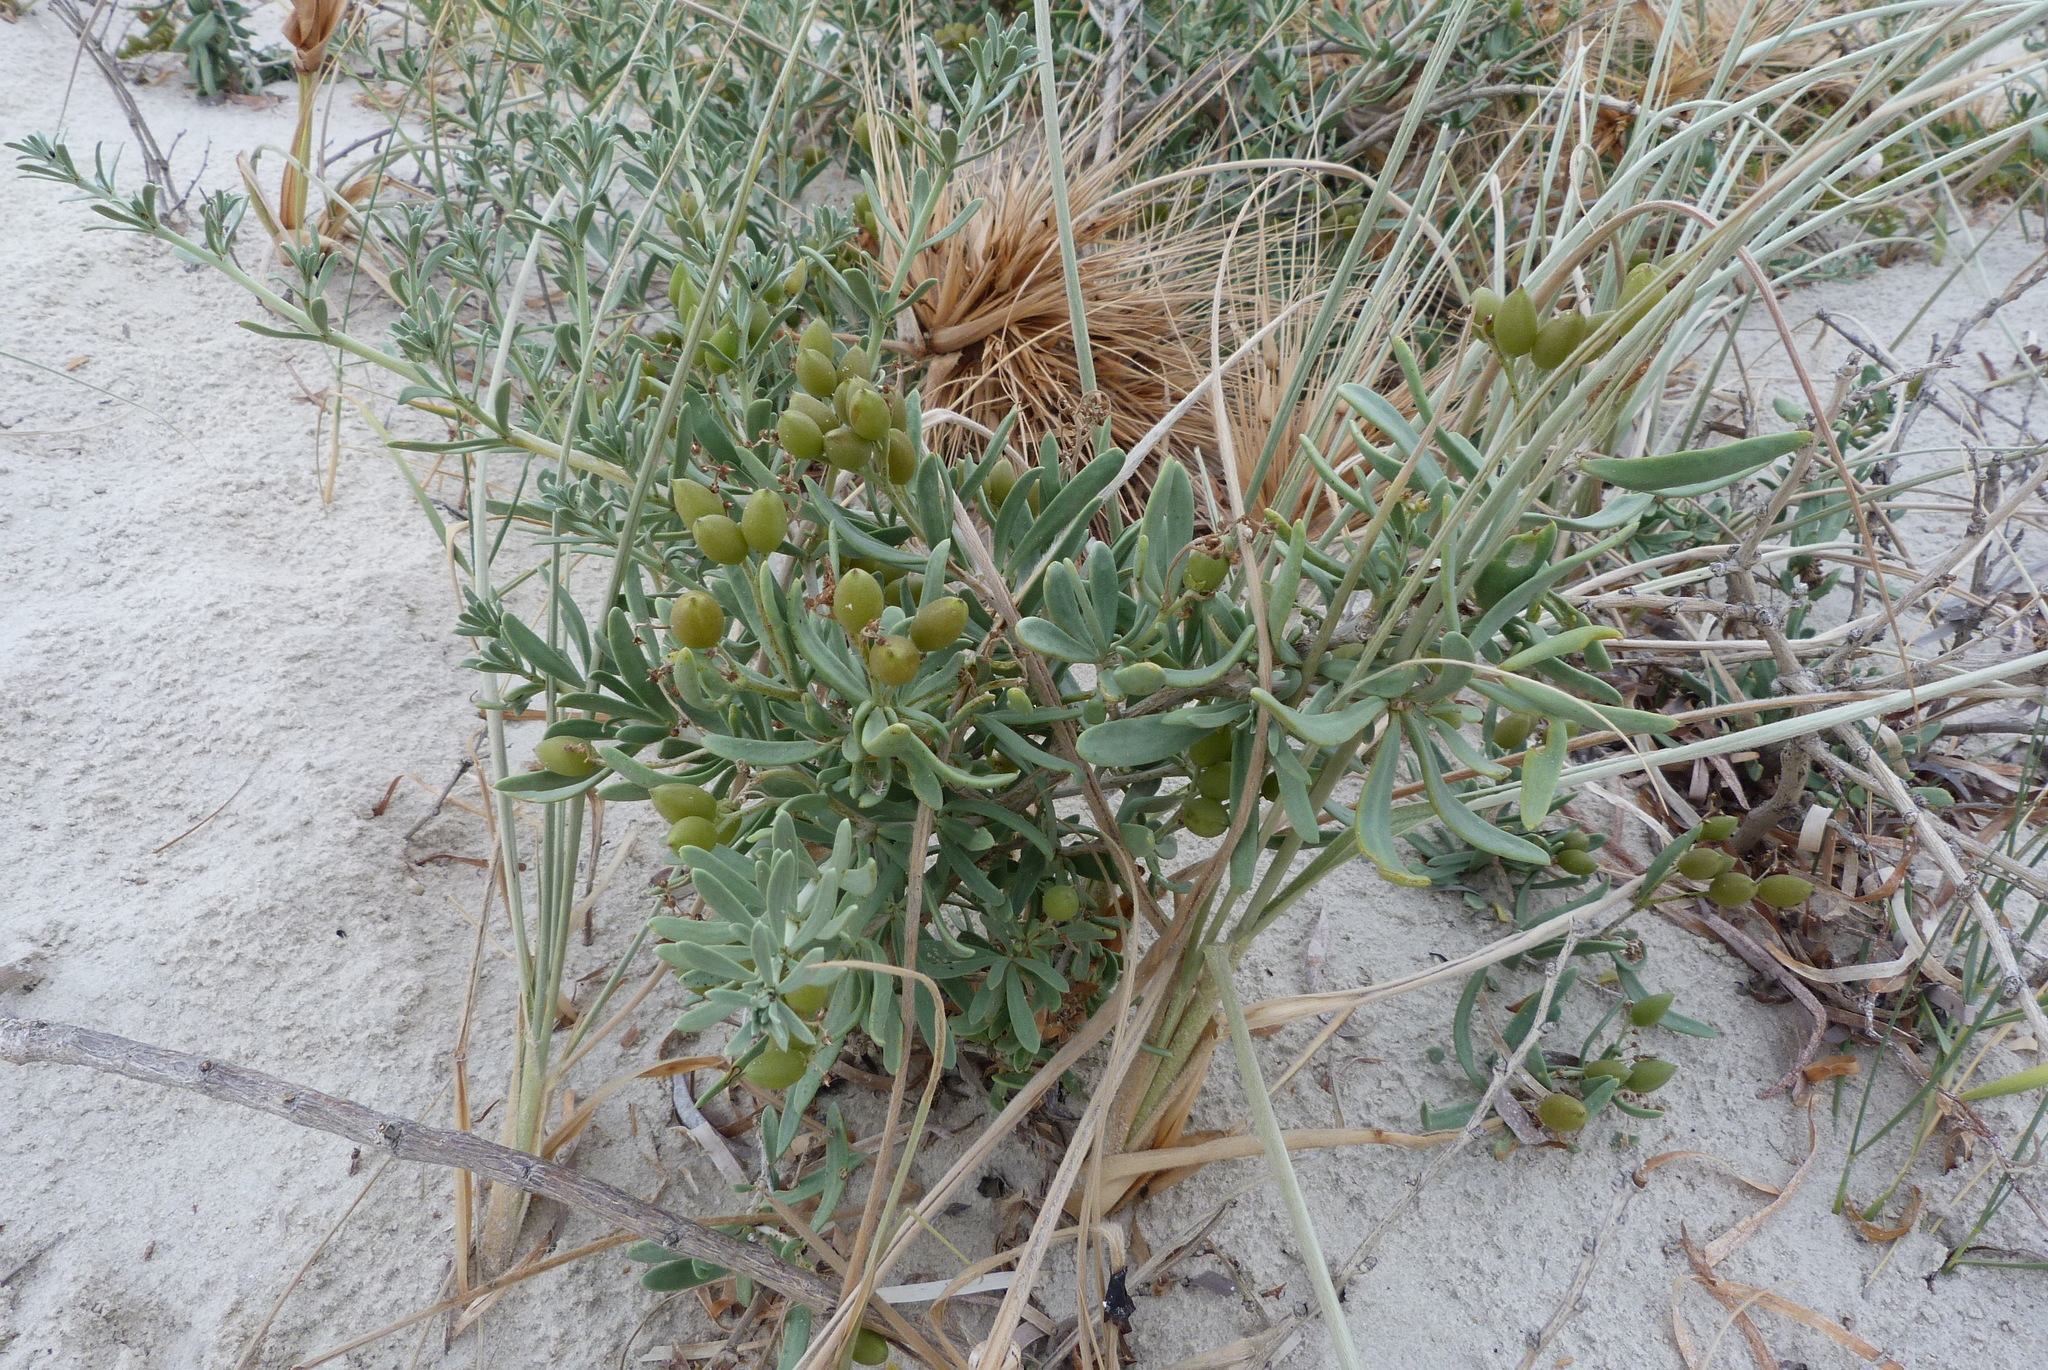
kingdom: Plantae
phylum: Tracheophyta
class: Magnoliopsida
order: Sapindales
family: Nitrariaceae
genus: Nitraria
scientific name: Nitraria billardierei
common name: Dillonbush
